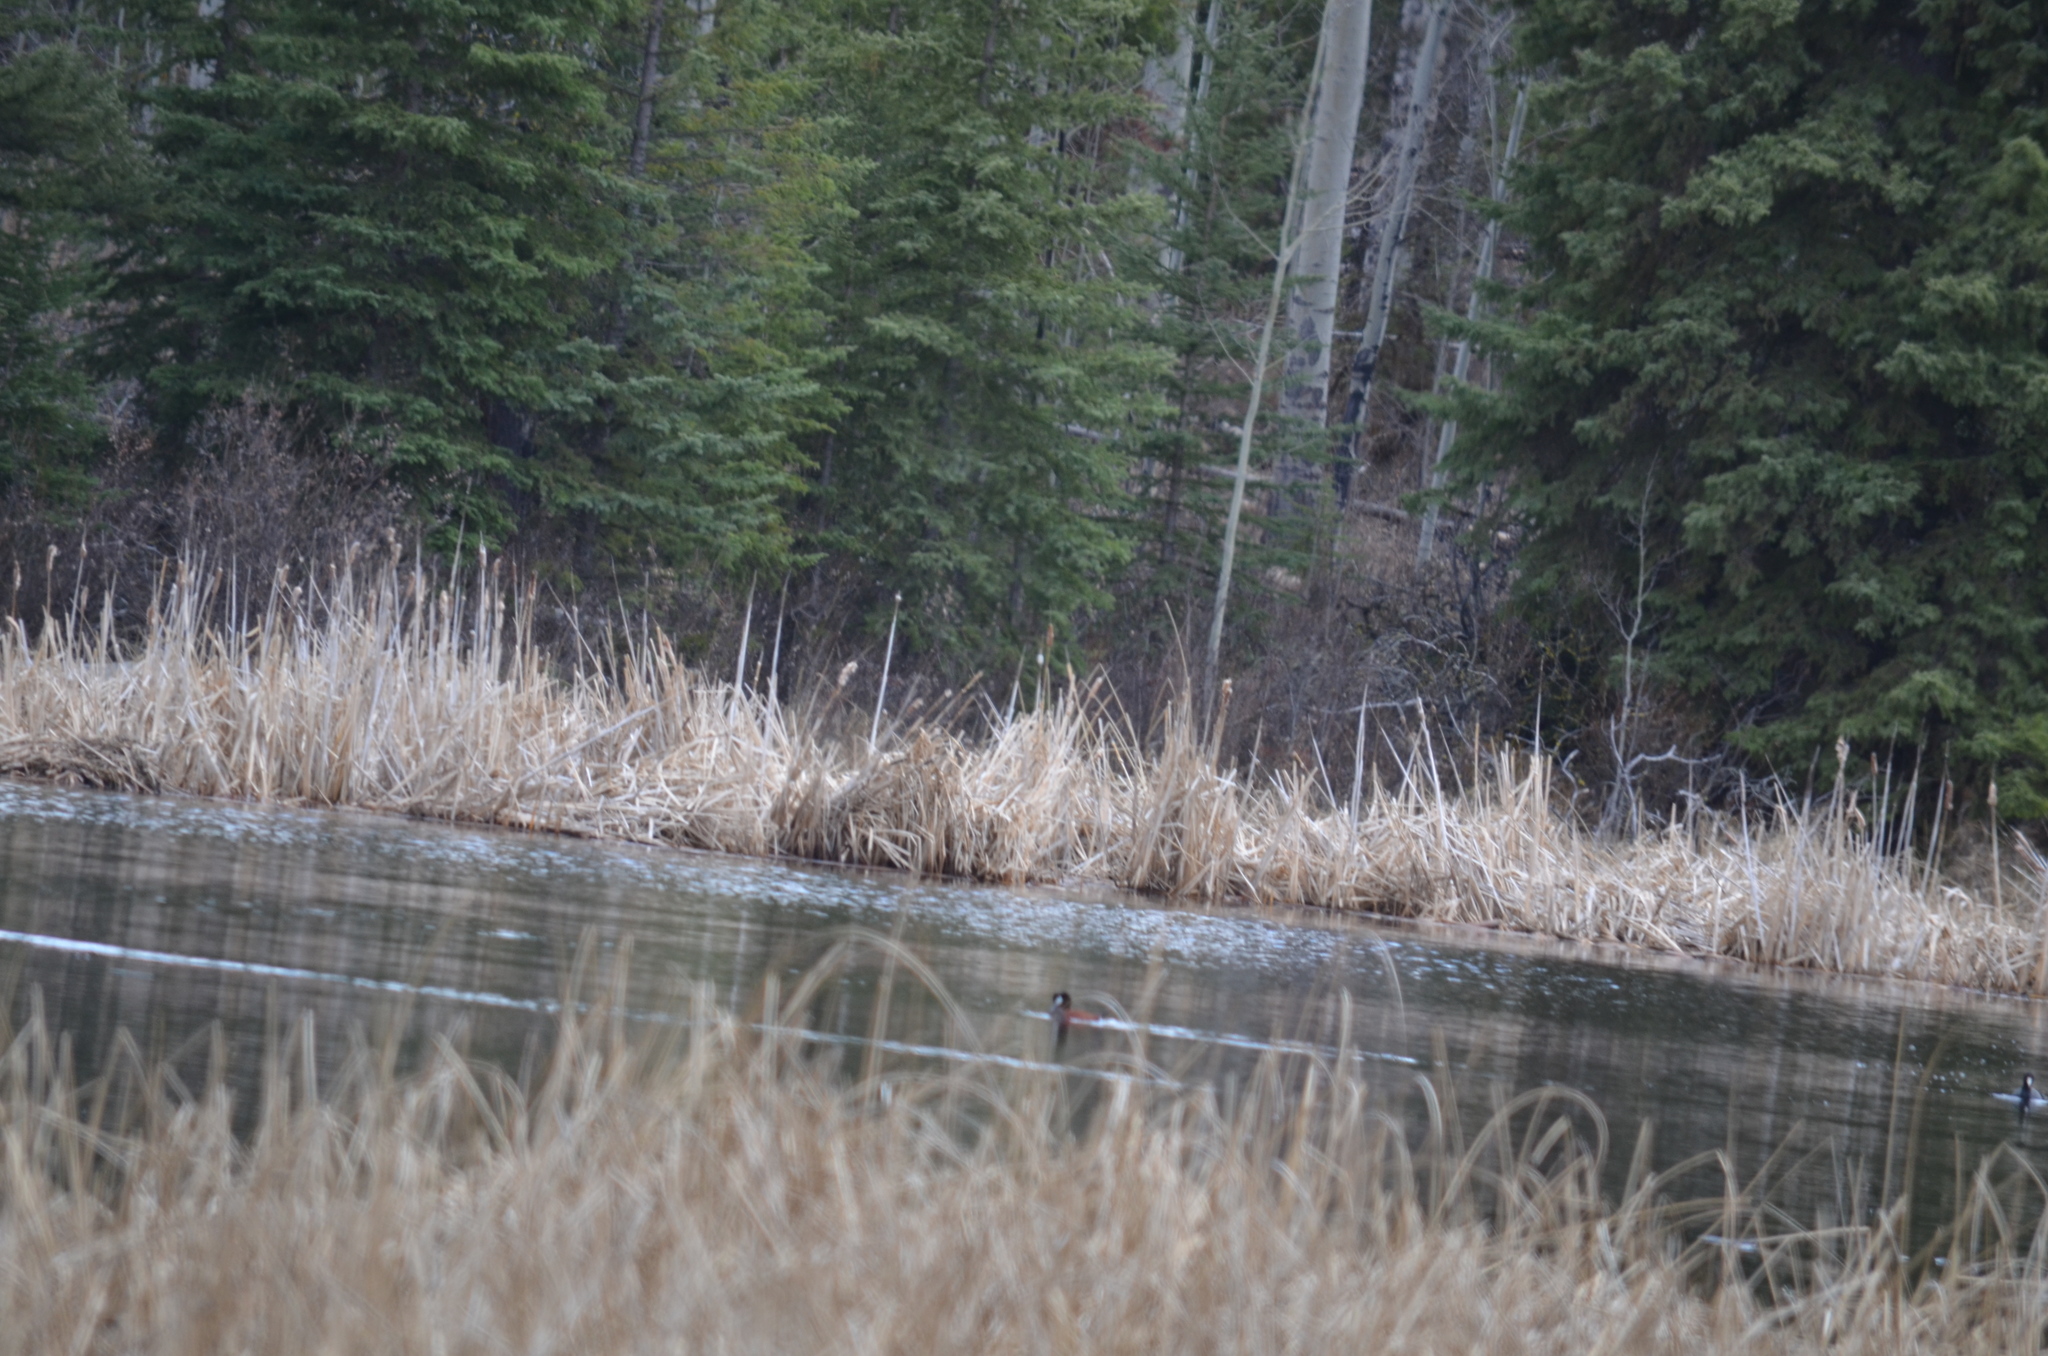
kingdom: Animalia
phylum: Chordata
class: Aves
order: Anseriformes
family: Anatidae
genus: Oxyura
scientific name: Oxyura jamaicensis
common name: Ruddy duck
